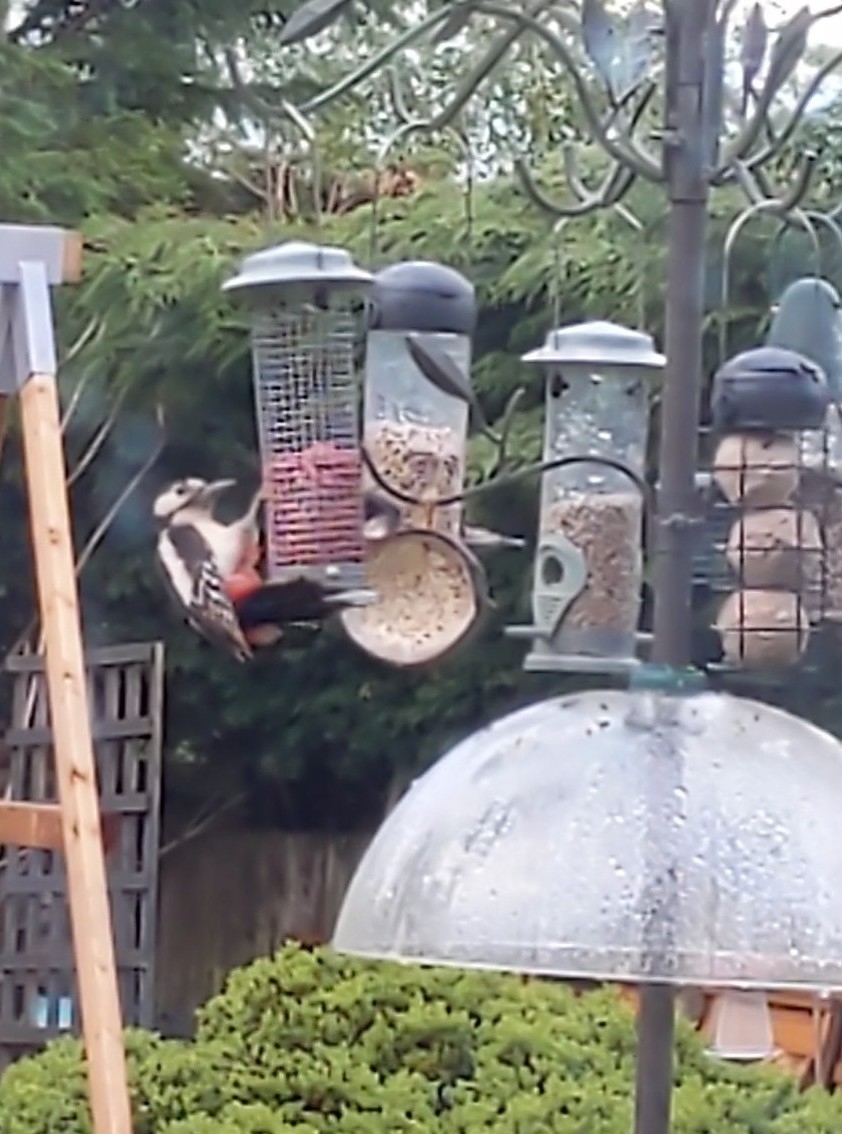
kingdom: Animalia
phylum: Chordata
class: Aves
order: Piciformes
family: Picidae
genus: Dendrocopos
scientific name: Dendrocopos major
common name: Great spotted woodpecker
